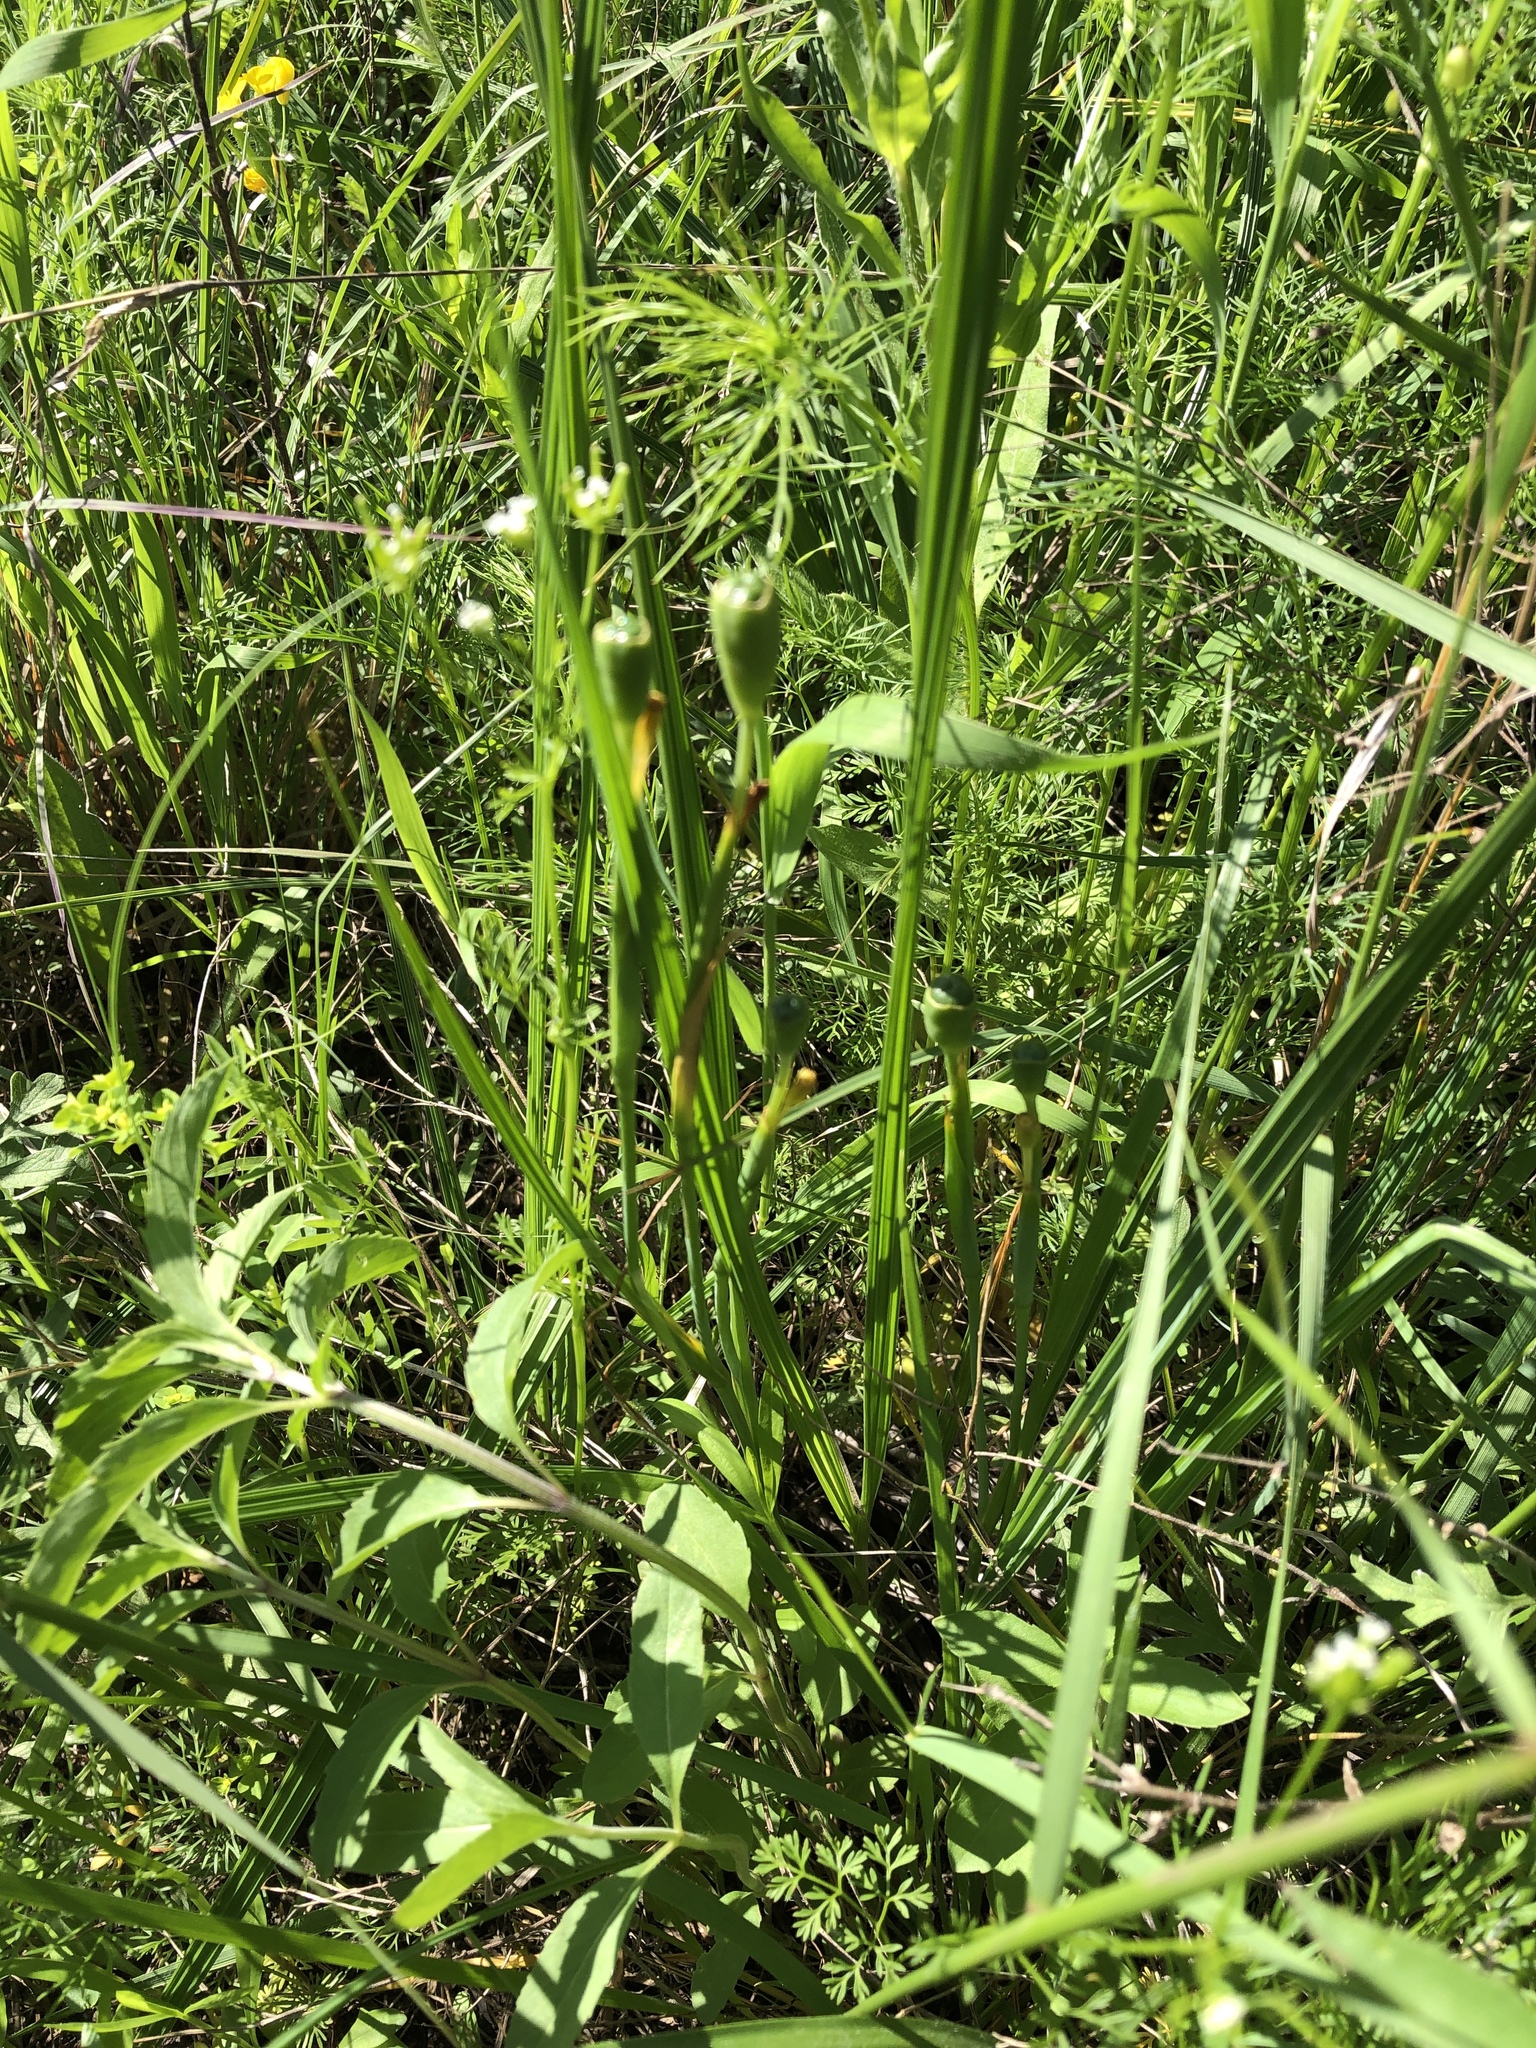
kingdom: Plantae
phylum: Tracheophyta
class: Liliopsida
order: Asparagales
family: Iridaceae
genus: Nemastylis
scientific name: Nemastylis geminiflora
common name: Prairie celestial
